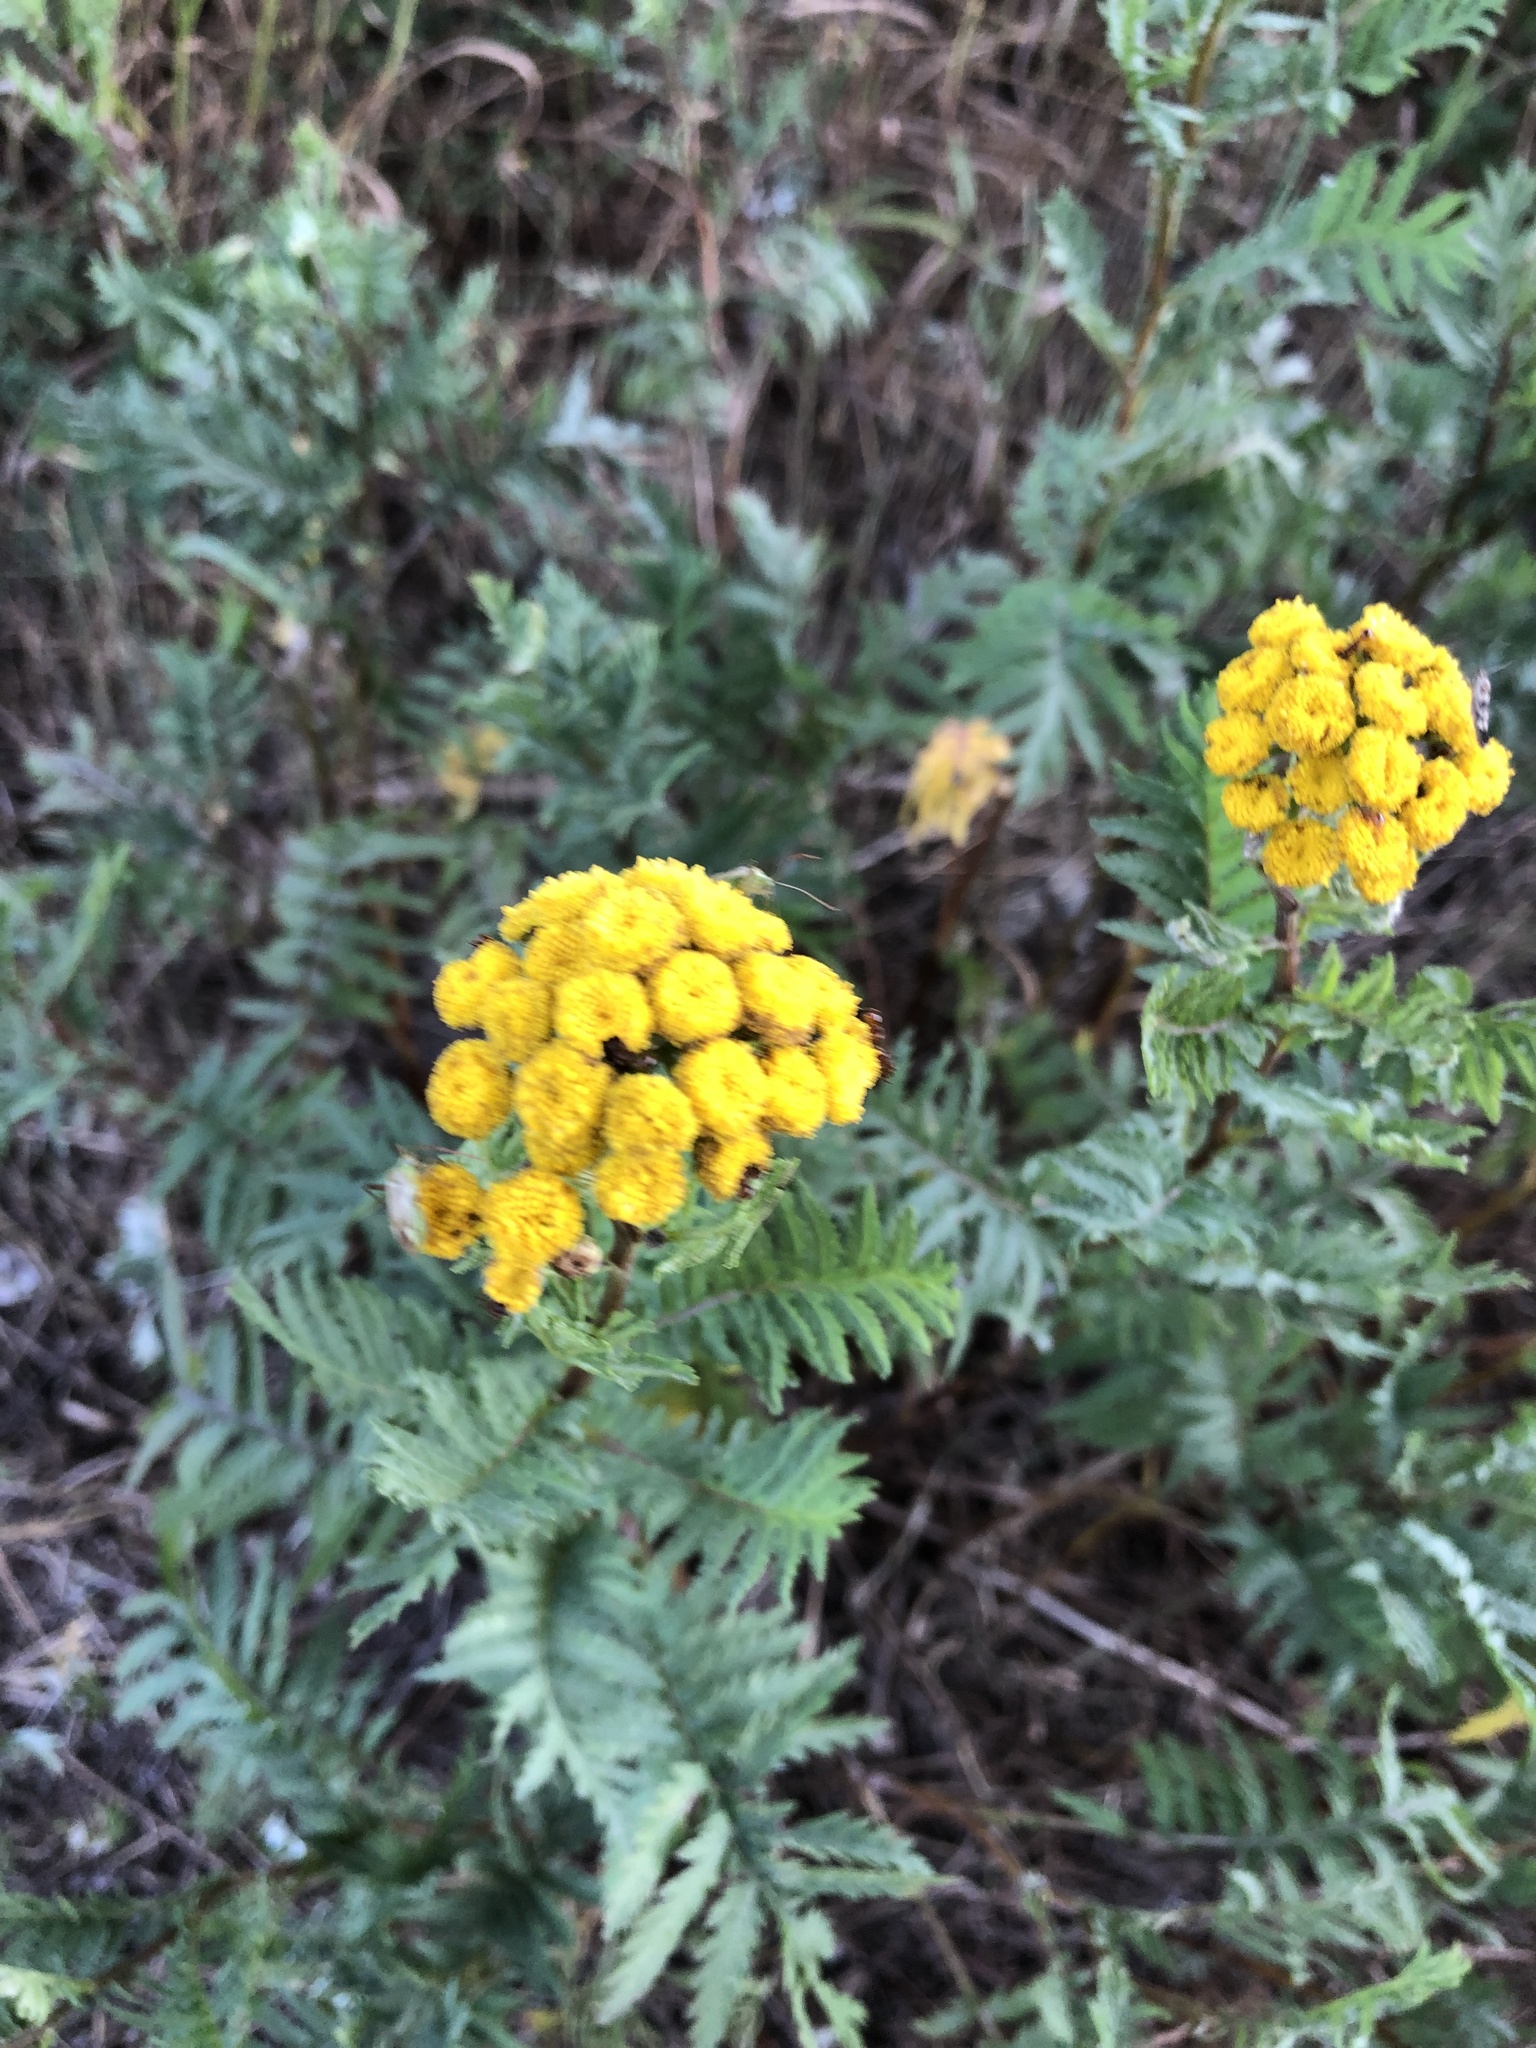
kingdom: Plantae
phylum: Tracheophyta
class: Magnoliopsida
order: Asterales
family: Asteraceae
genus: Tanacetum
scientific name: Tanacetum vulgare
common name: Common tansy
